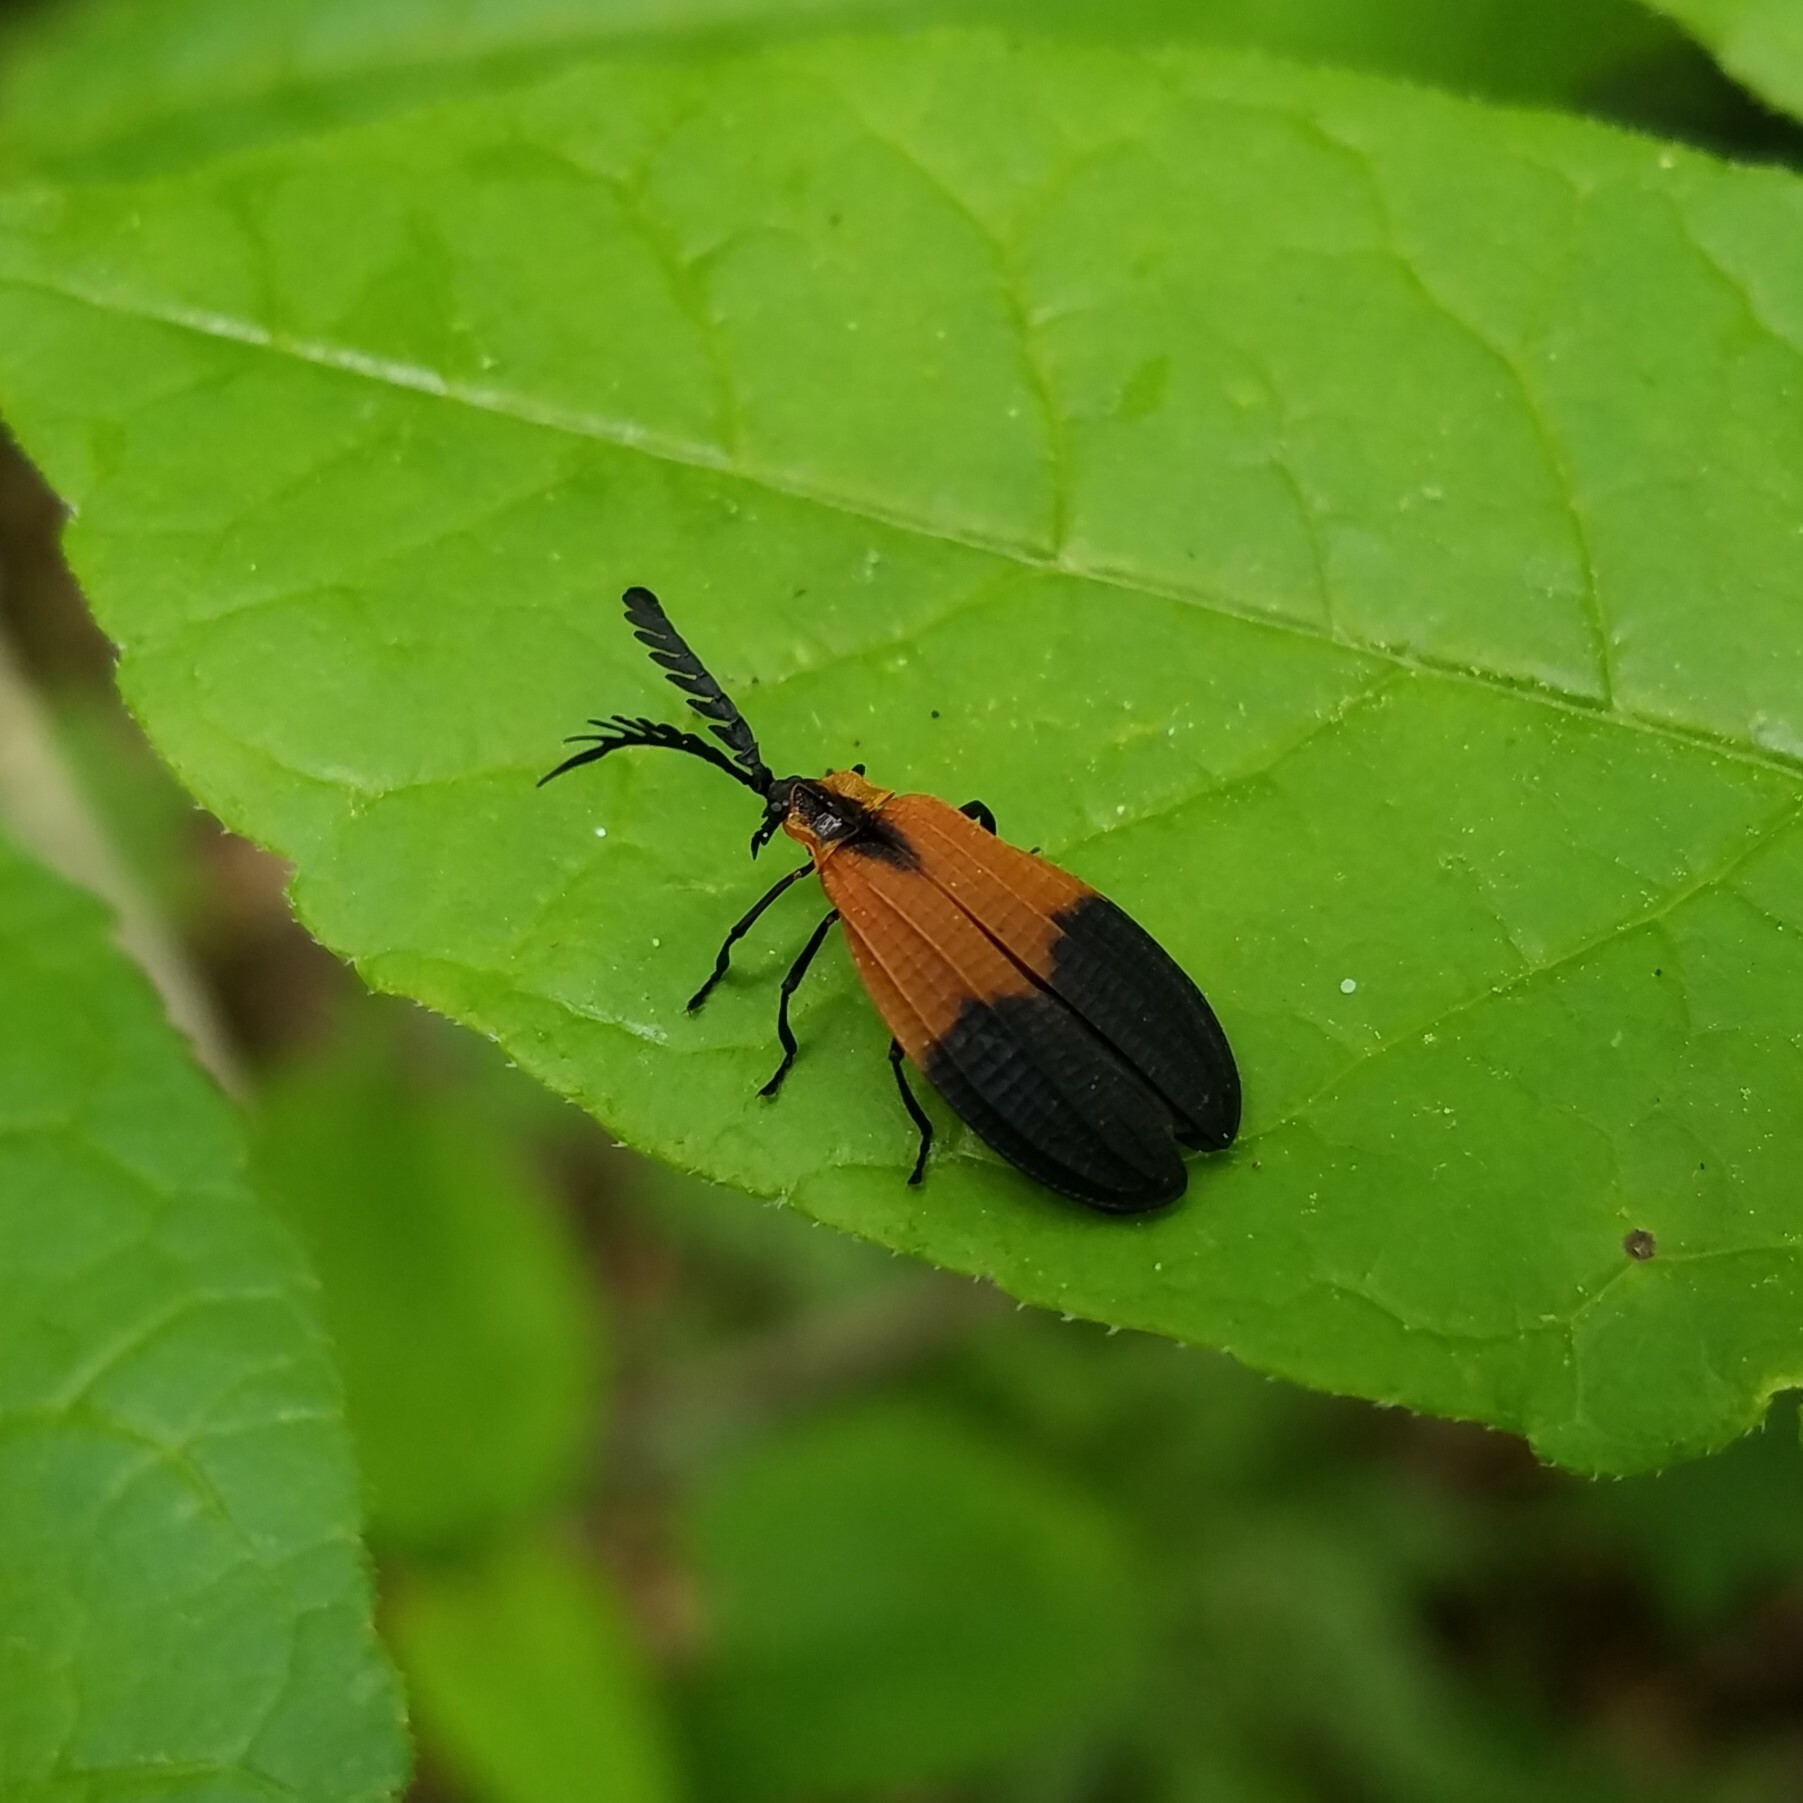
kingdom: Animalia
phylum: Arthropoda
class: Insecta
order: Coleoptera
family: Lycidae
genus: Caenia
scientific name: Caenia dimidiata
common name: Terminal net-winged beetle
